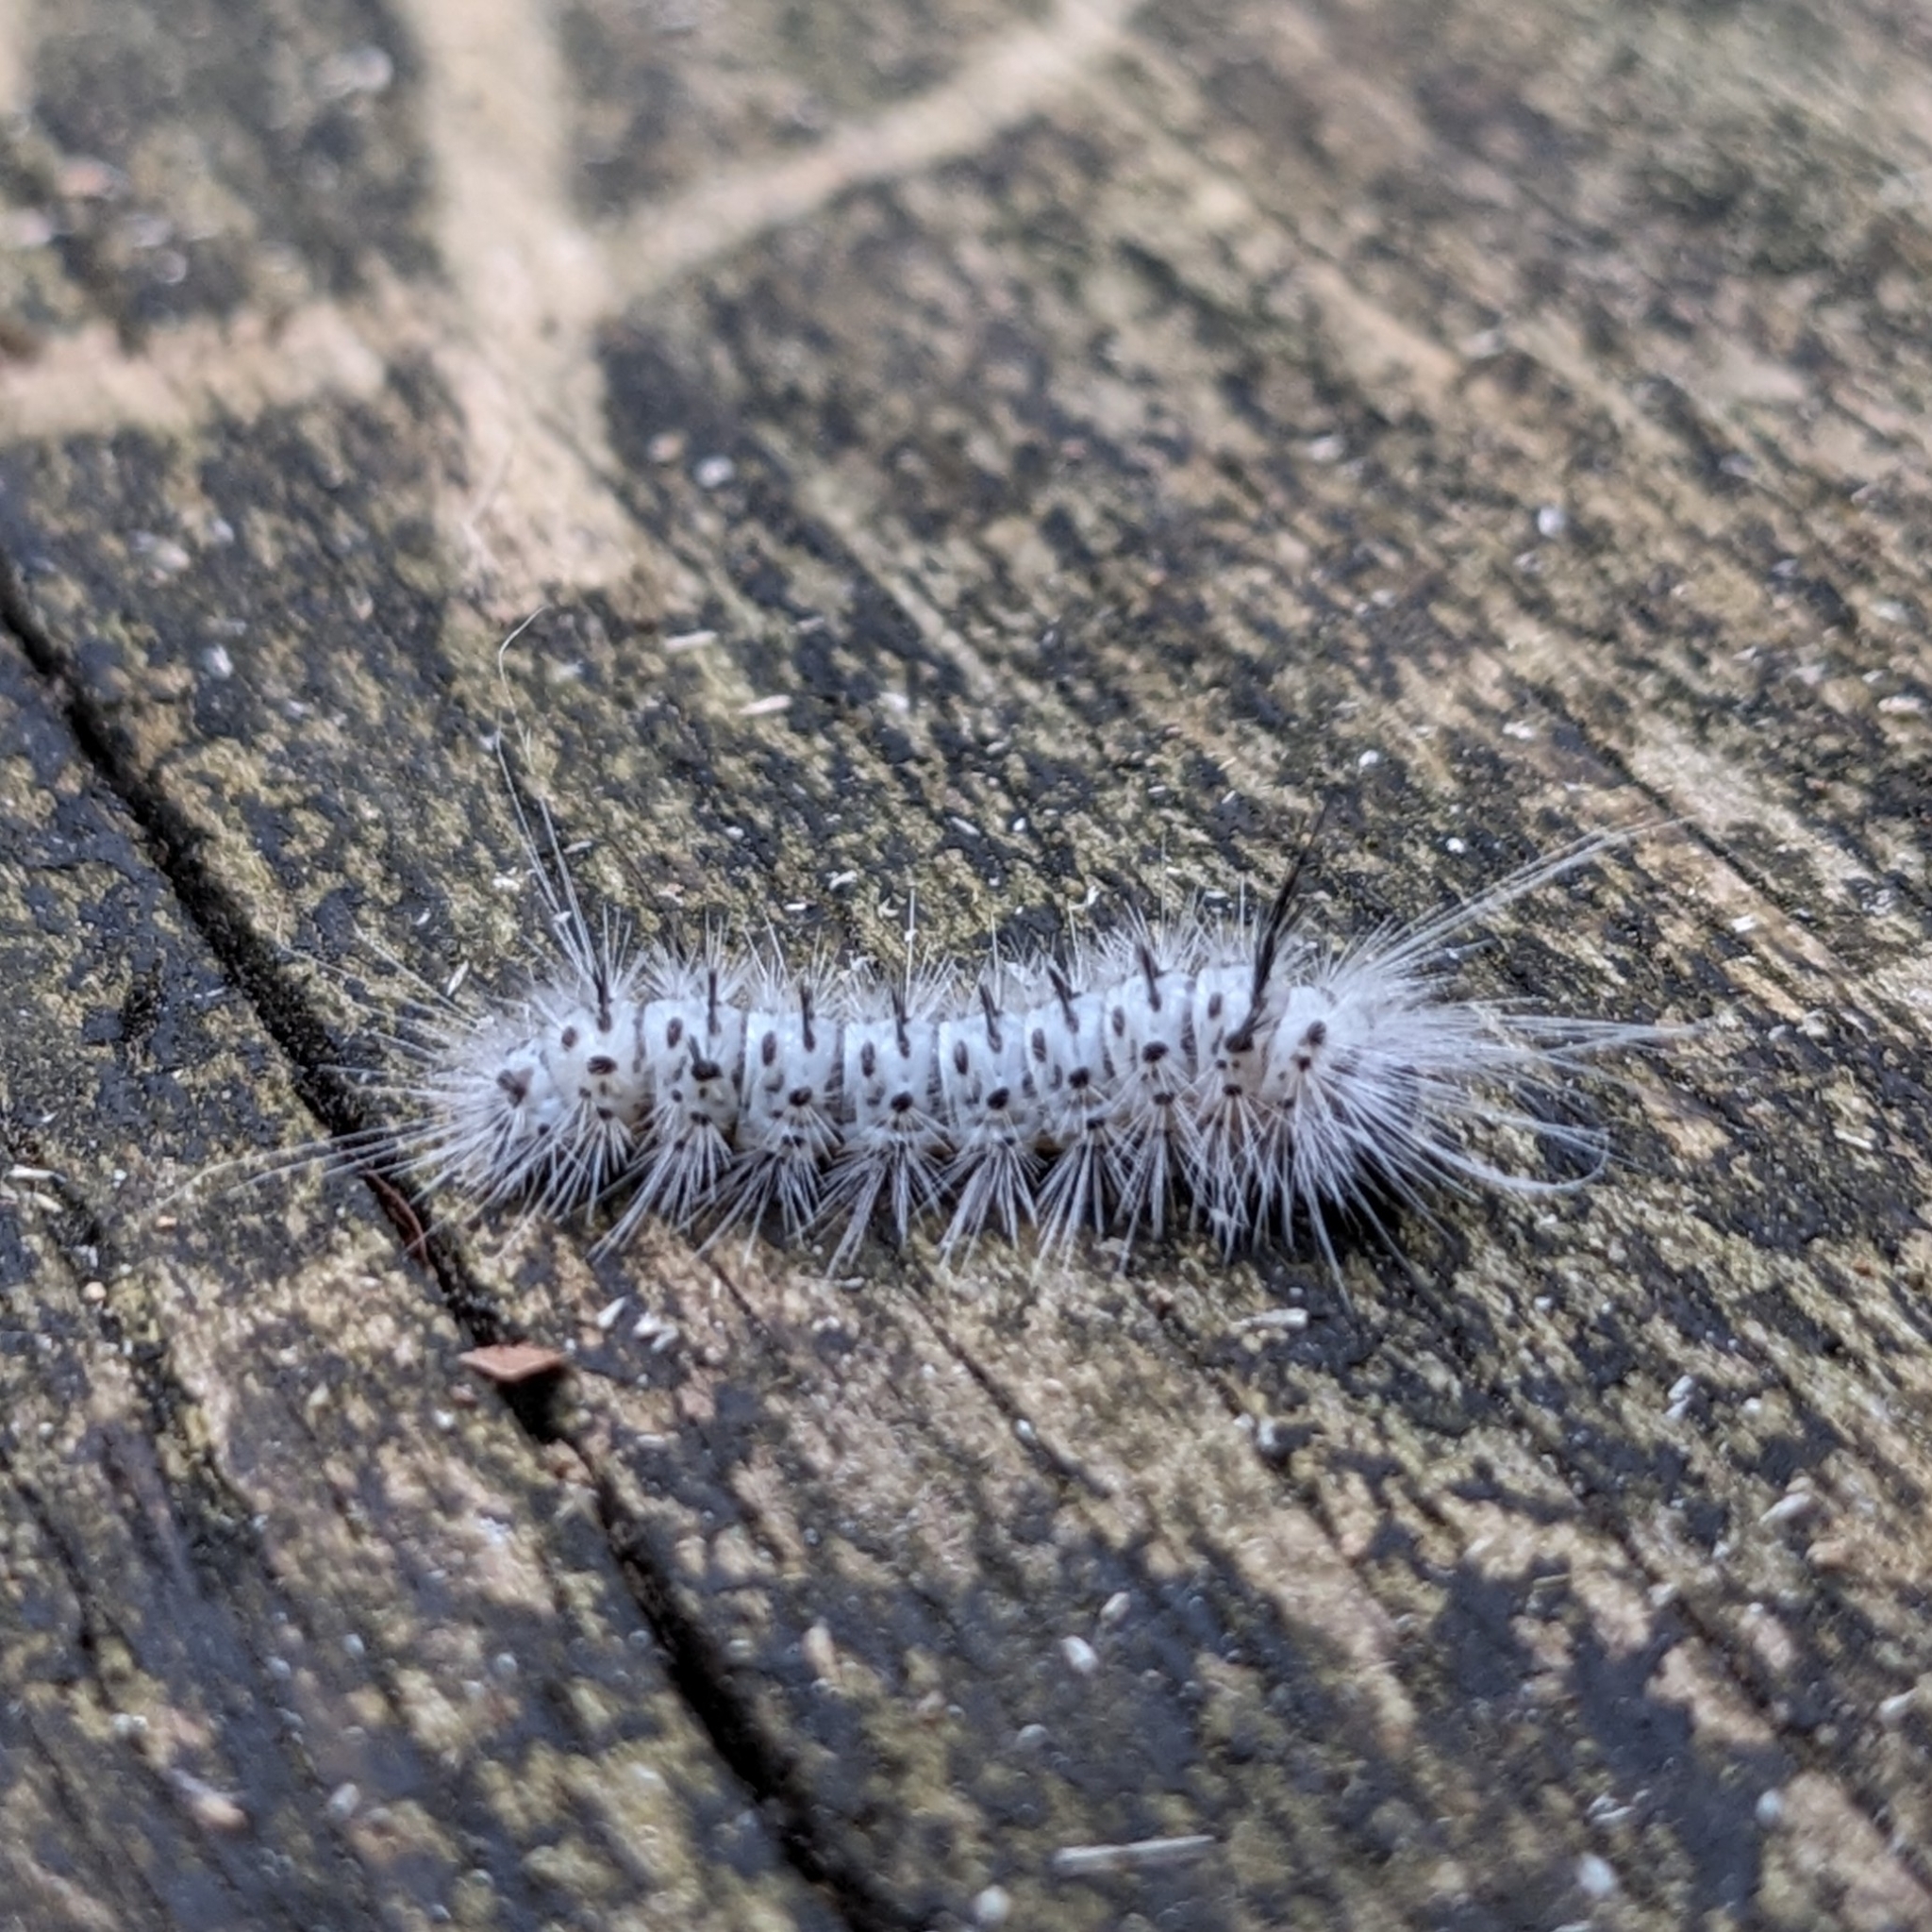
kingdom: Animalia
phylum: Arthropoda
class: Insecta
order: Lepidoptera
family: Erebidae
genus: Lophocampa
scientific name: Lophocampa caryae
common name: Hickory tussock moth
